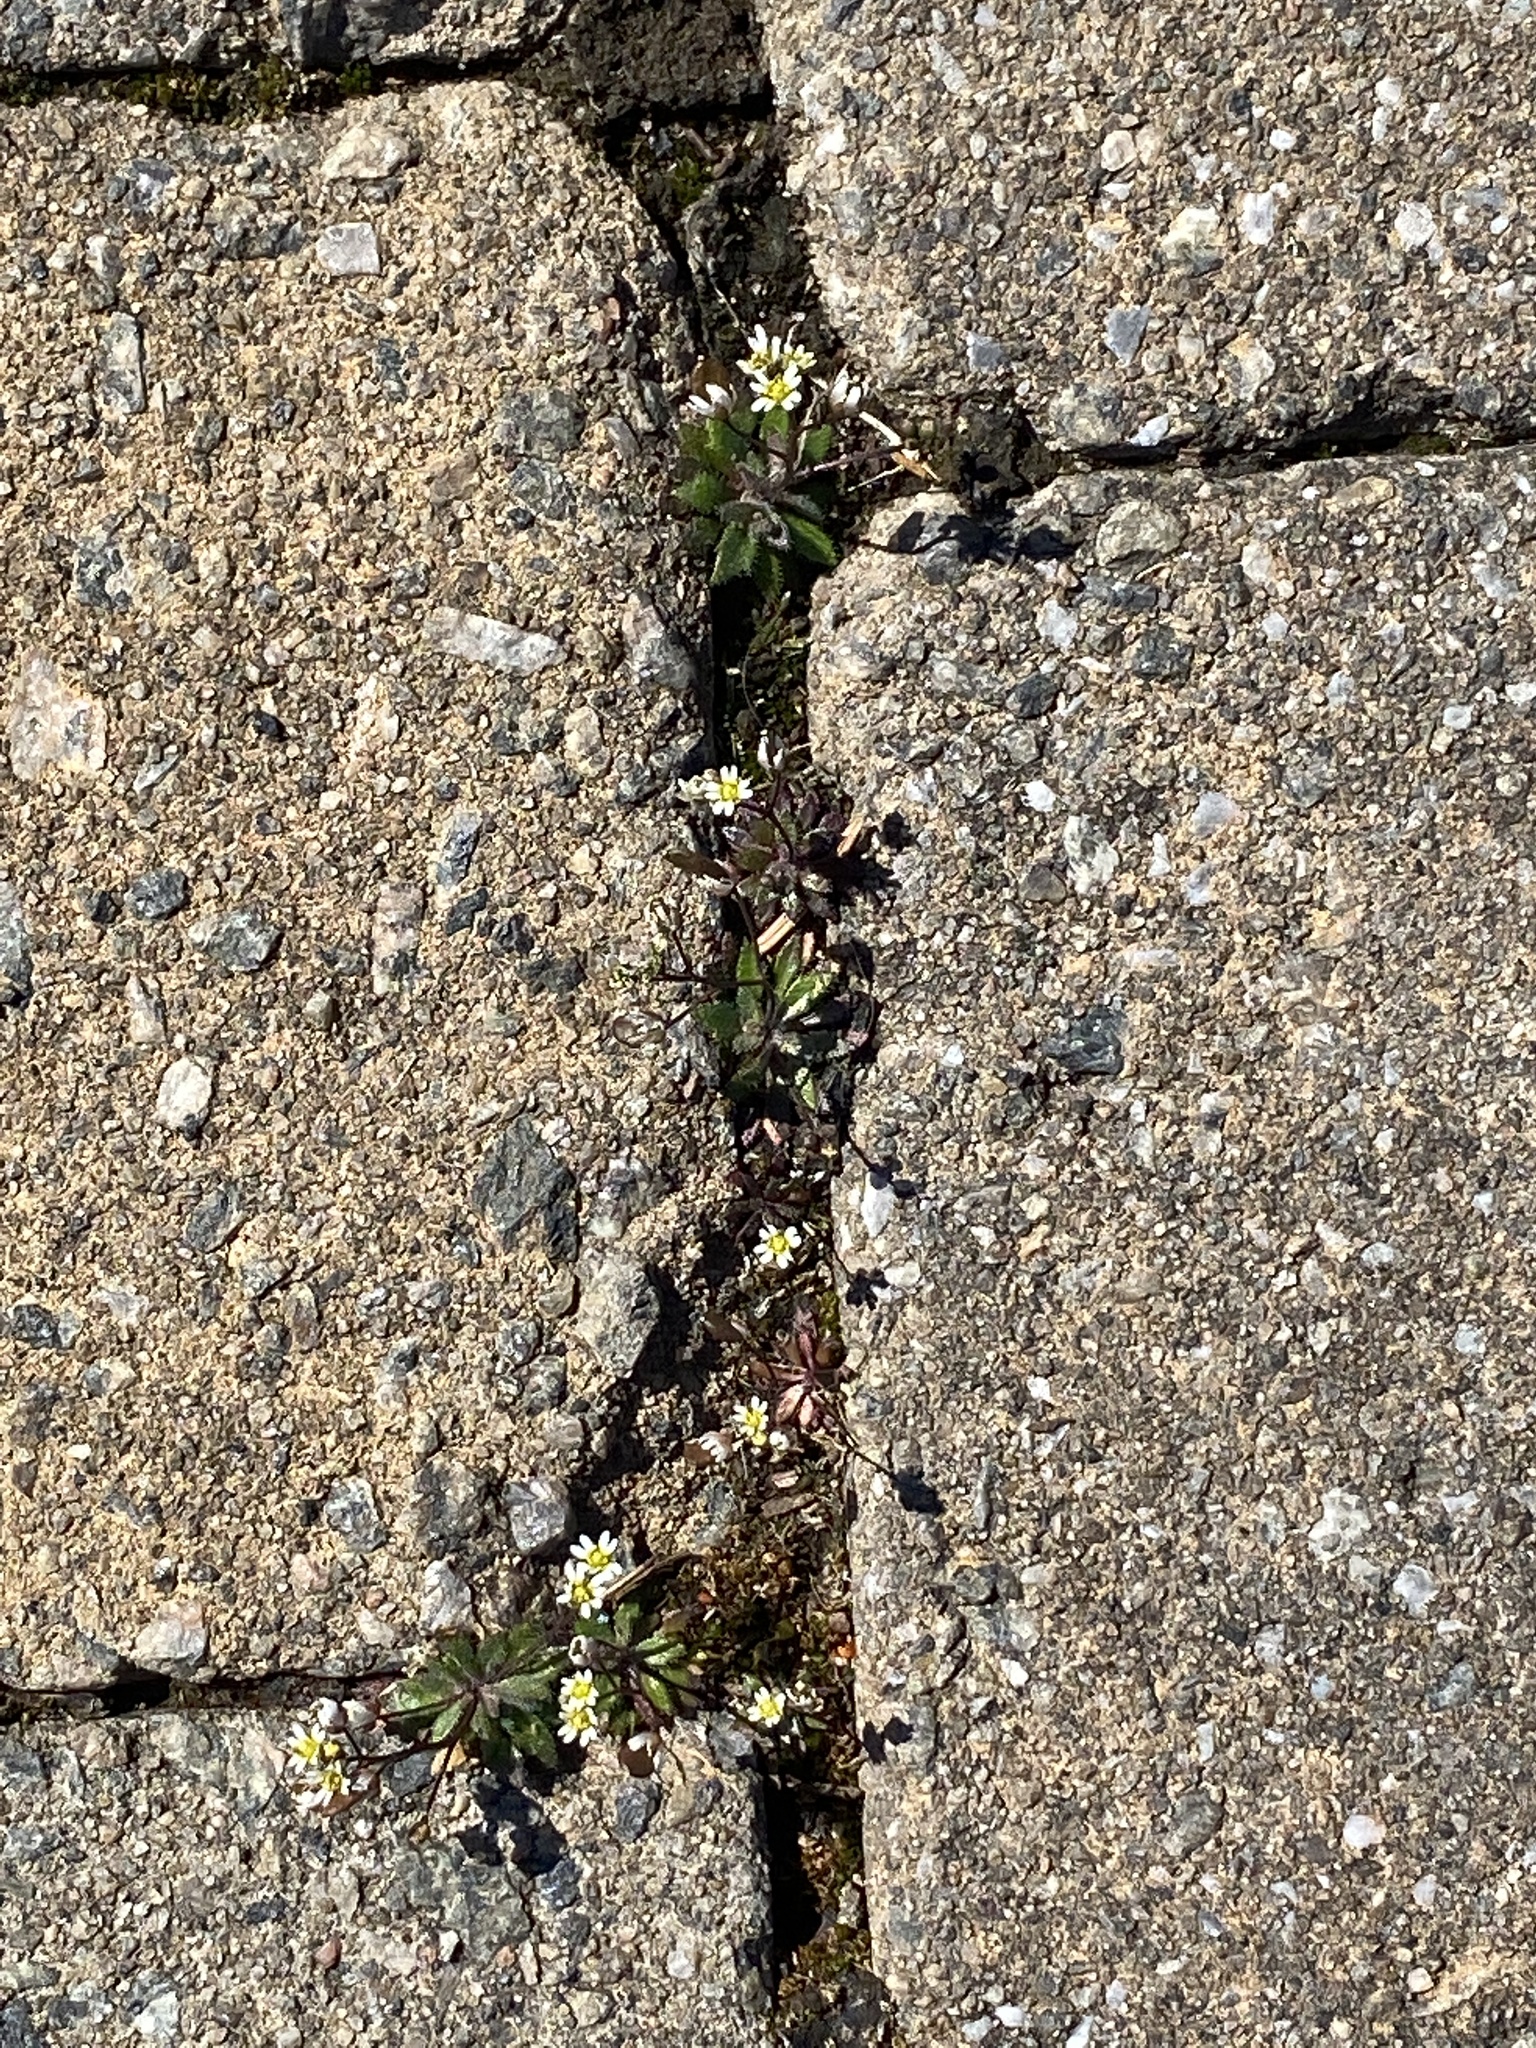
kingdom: Plantae
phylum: Tracheophyta
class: Magnoliopsida
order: Brassicales
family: Brassicaceae
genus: Draba
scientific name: Draba verna
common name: Spring draba
